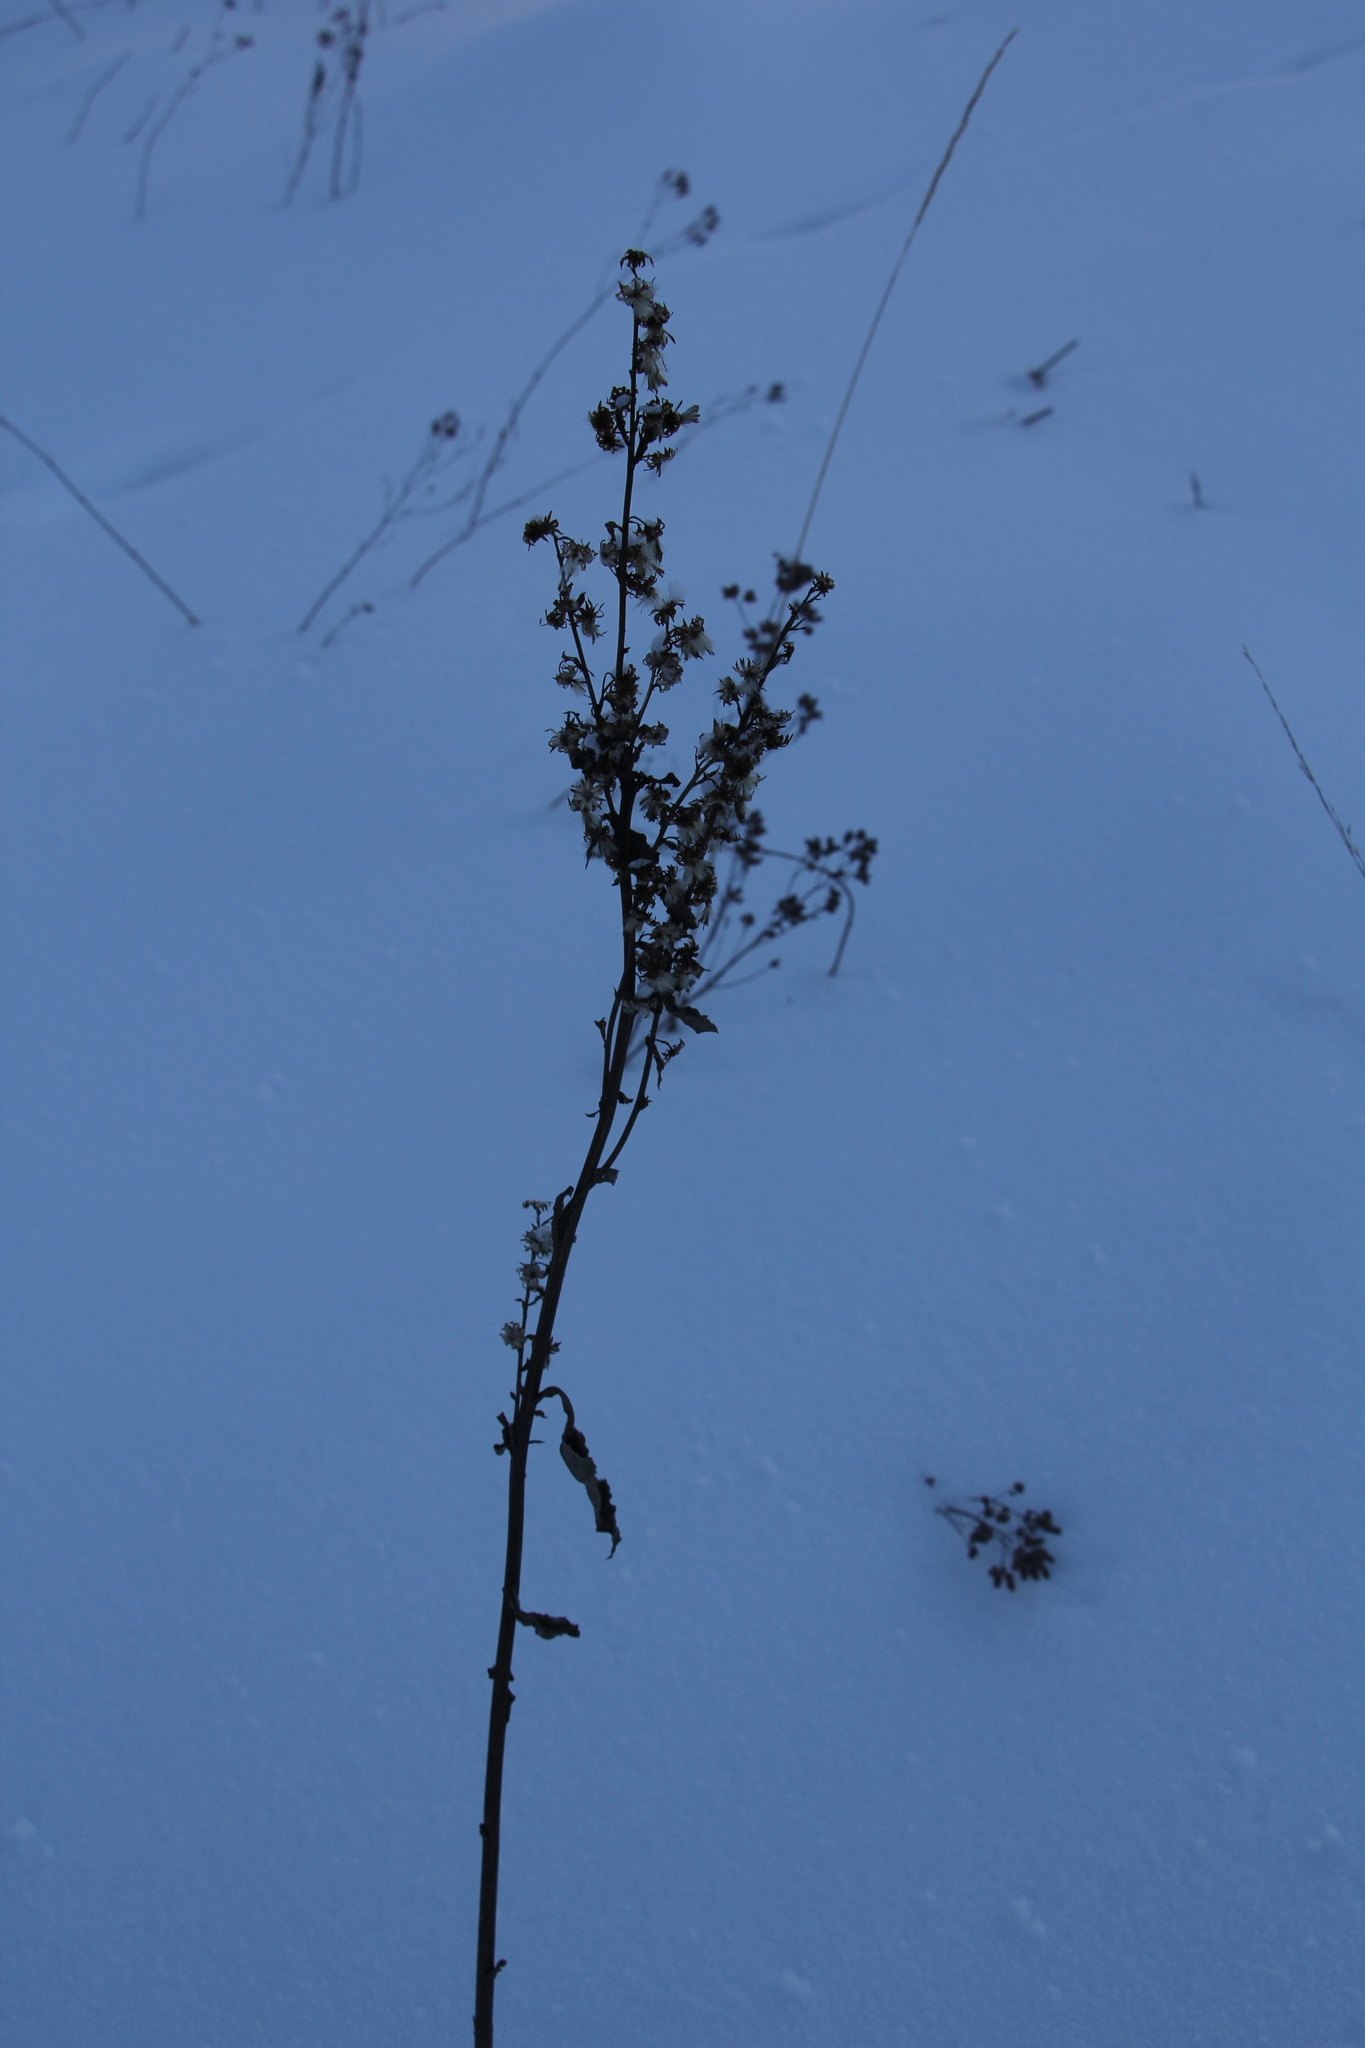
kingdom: Plantae
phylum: Tracheophyta
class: Magnoliopsida
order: Asterales
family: Asteraceae
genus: Solidago
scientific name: Solidago virgaurea
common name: Goldenrod
